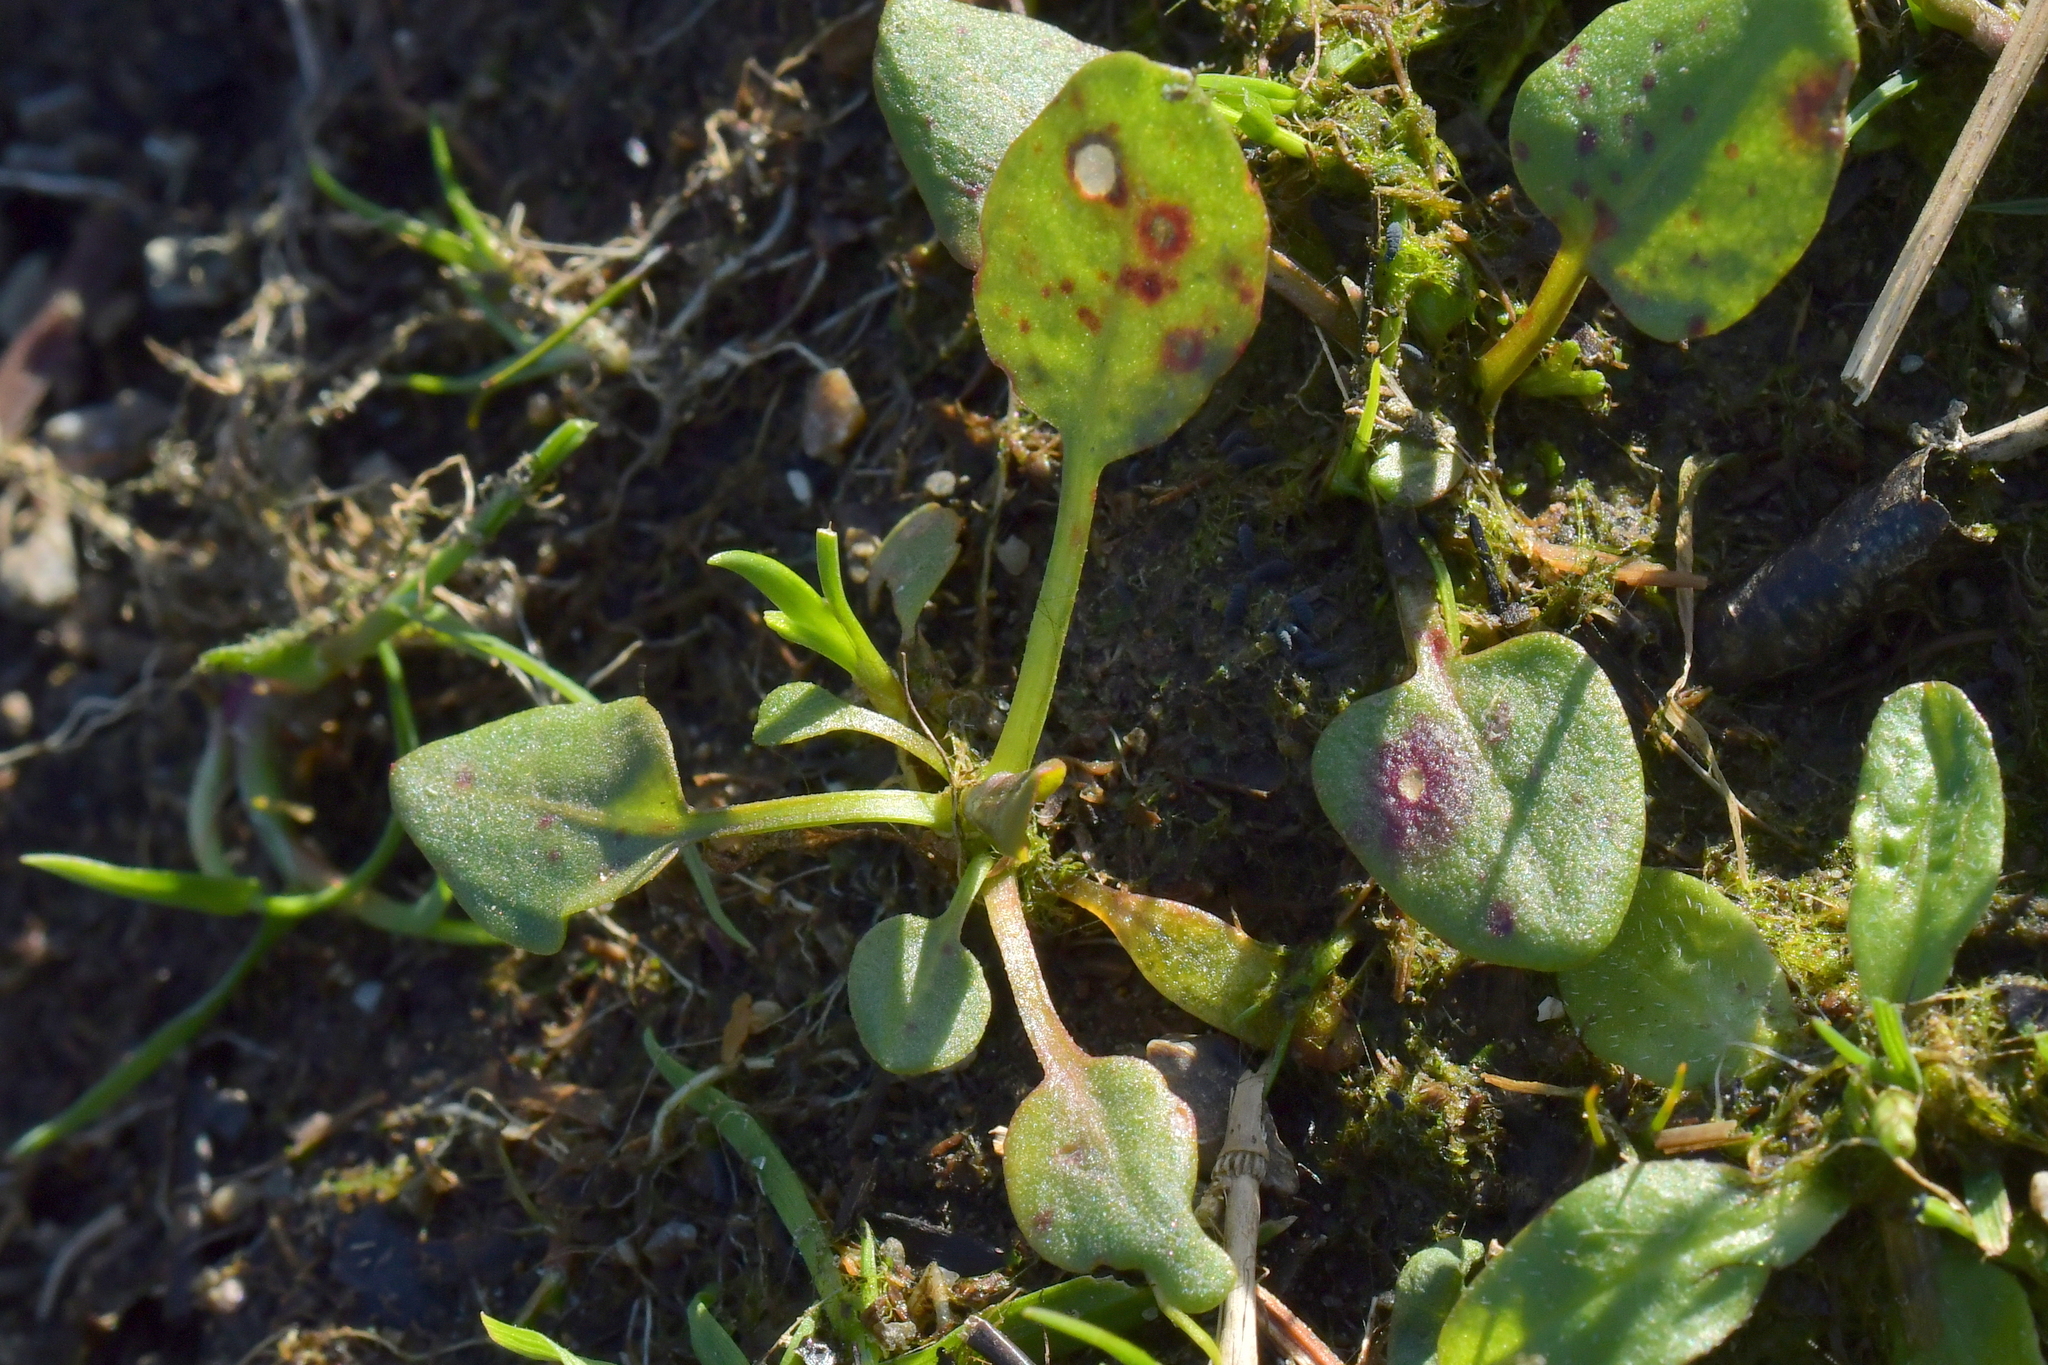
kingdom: Plantae
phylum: Tracheophyta
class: Magnoliopsida
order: Ranunculales
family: Ranunculaceae
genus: Ranunculus
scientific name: Ranunculus flammula
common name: Lesser spearwort
